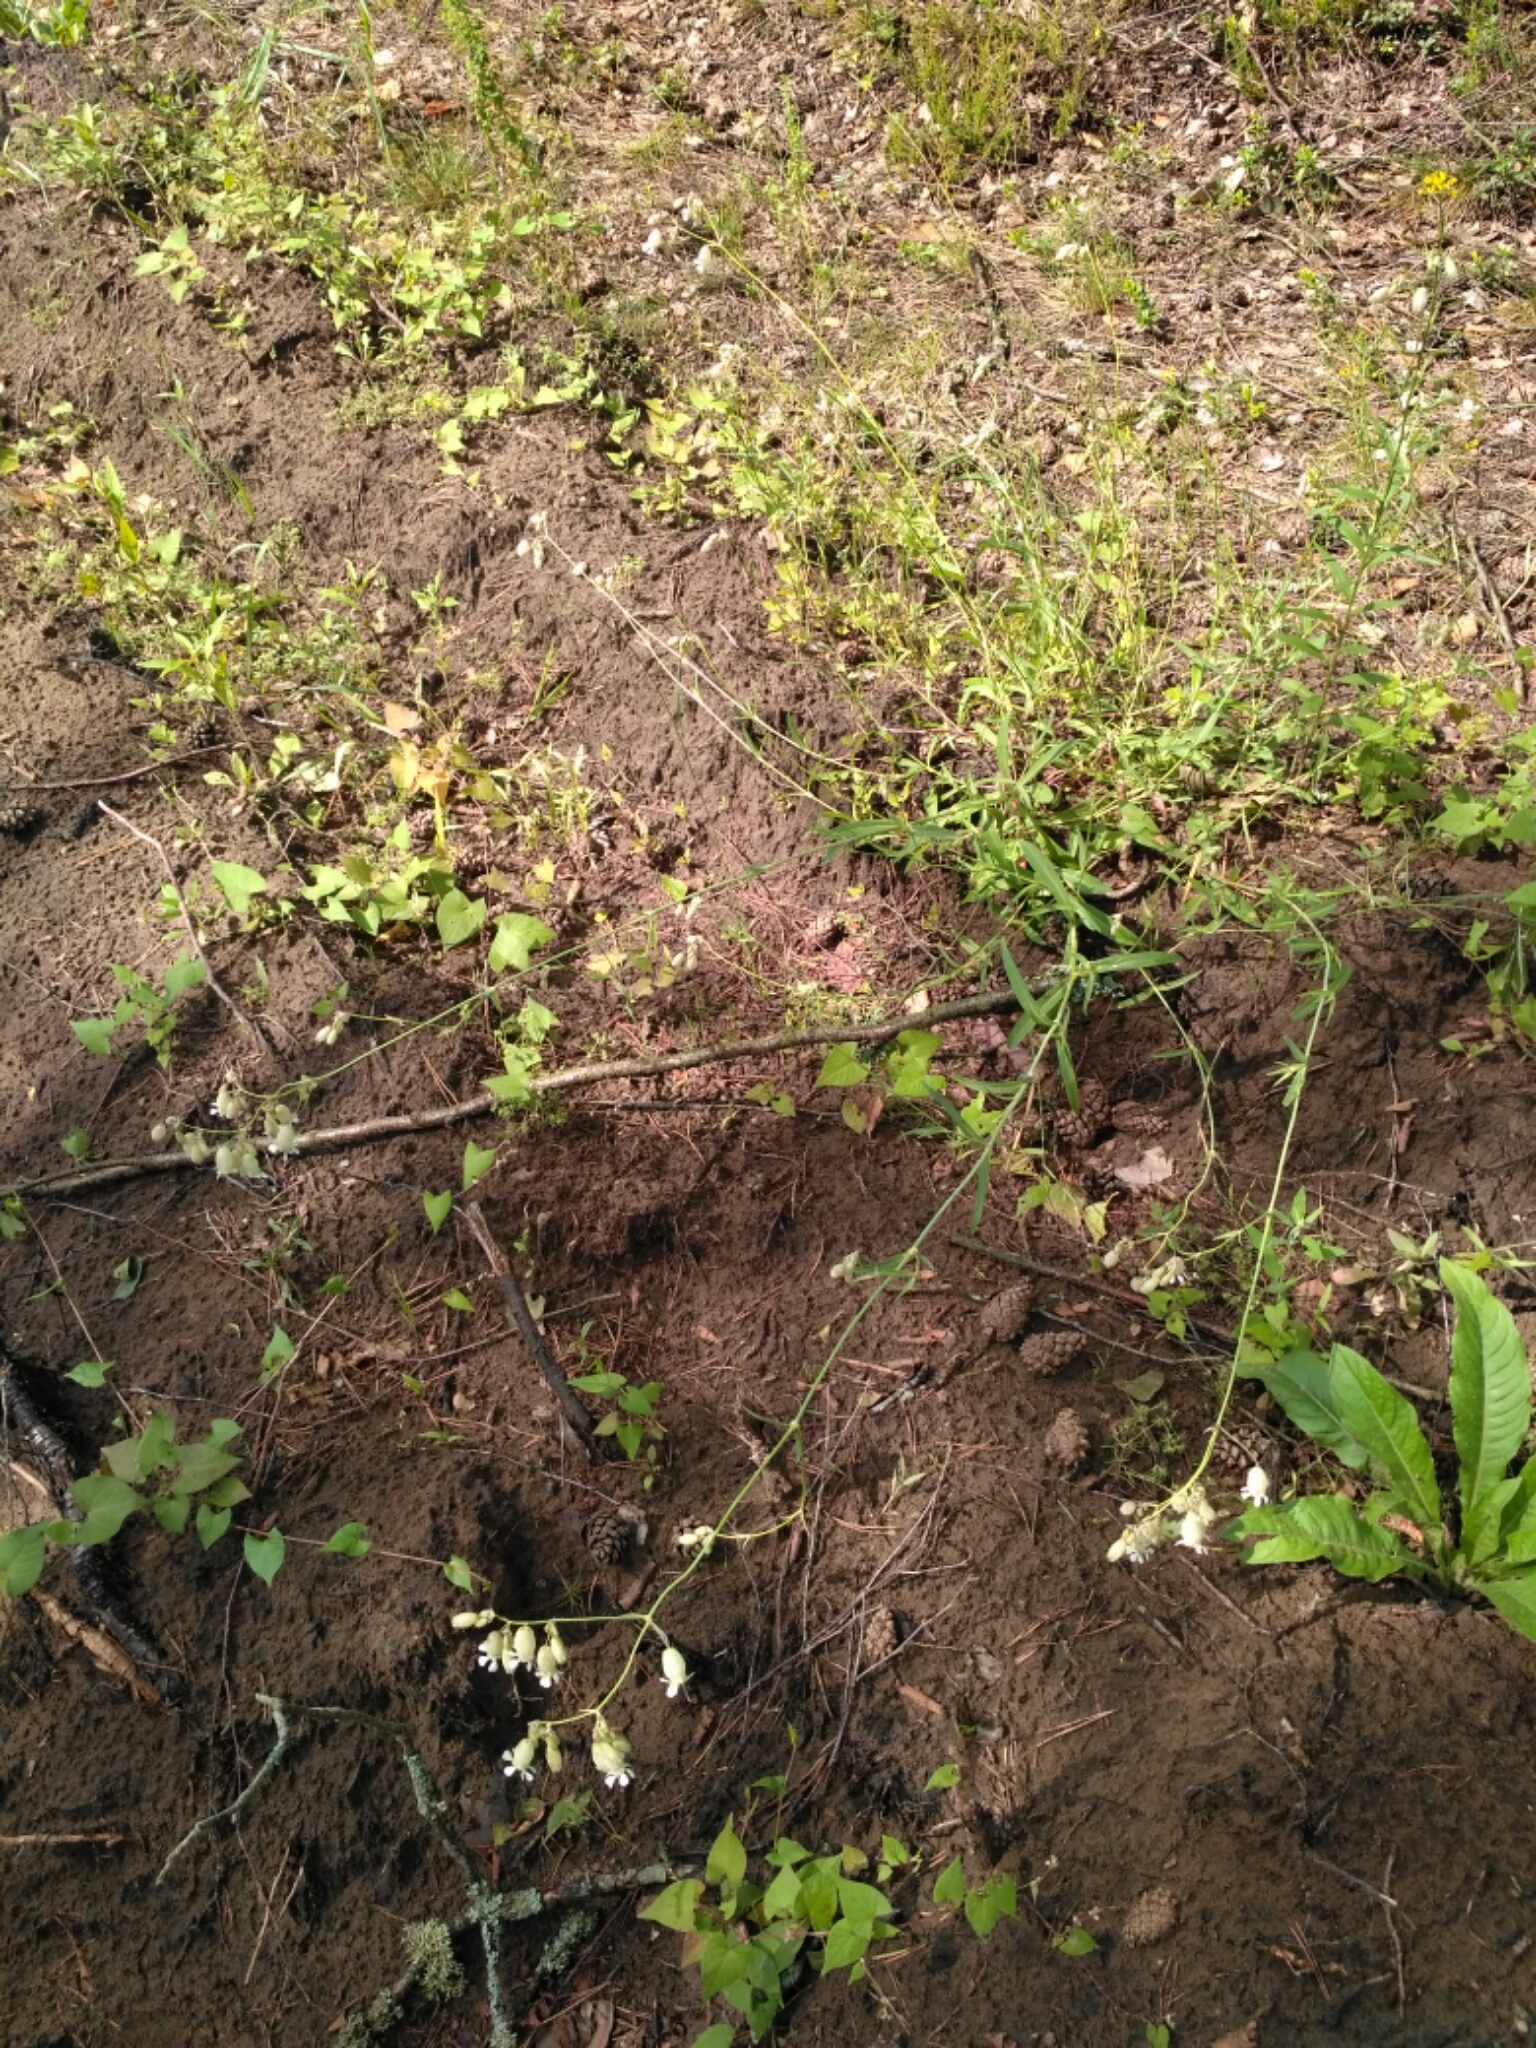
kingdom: Plantae
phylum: Tracheophyta
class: Magnoliopsida
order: Caryophyllales
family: Caryophyllaceae
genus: Silene
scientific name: Silene vulgaris
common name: Bladder campion
